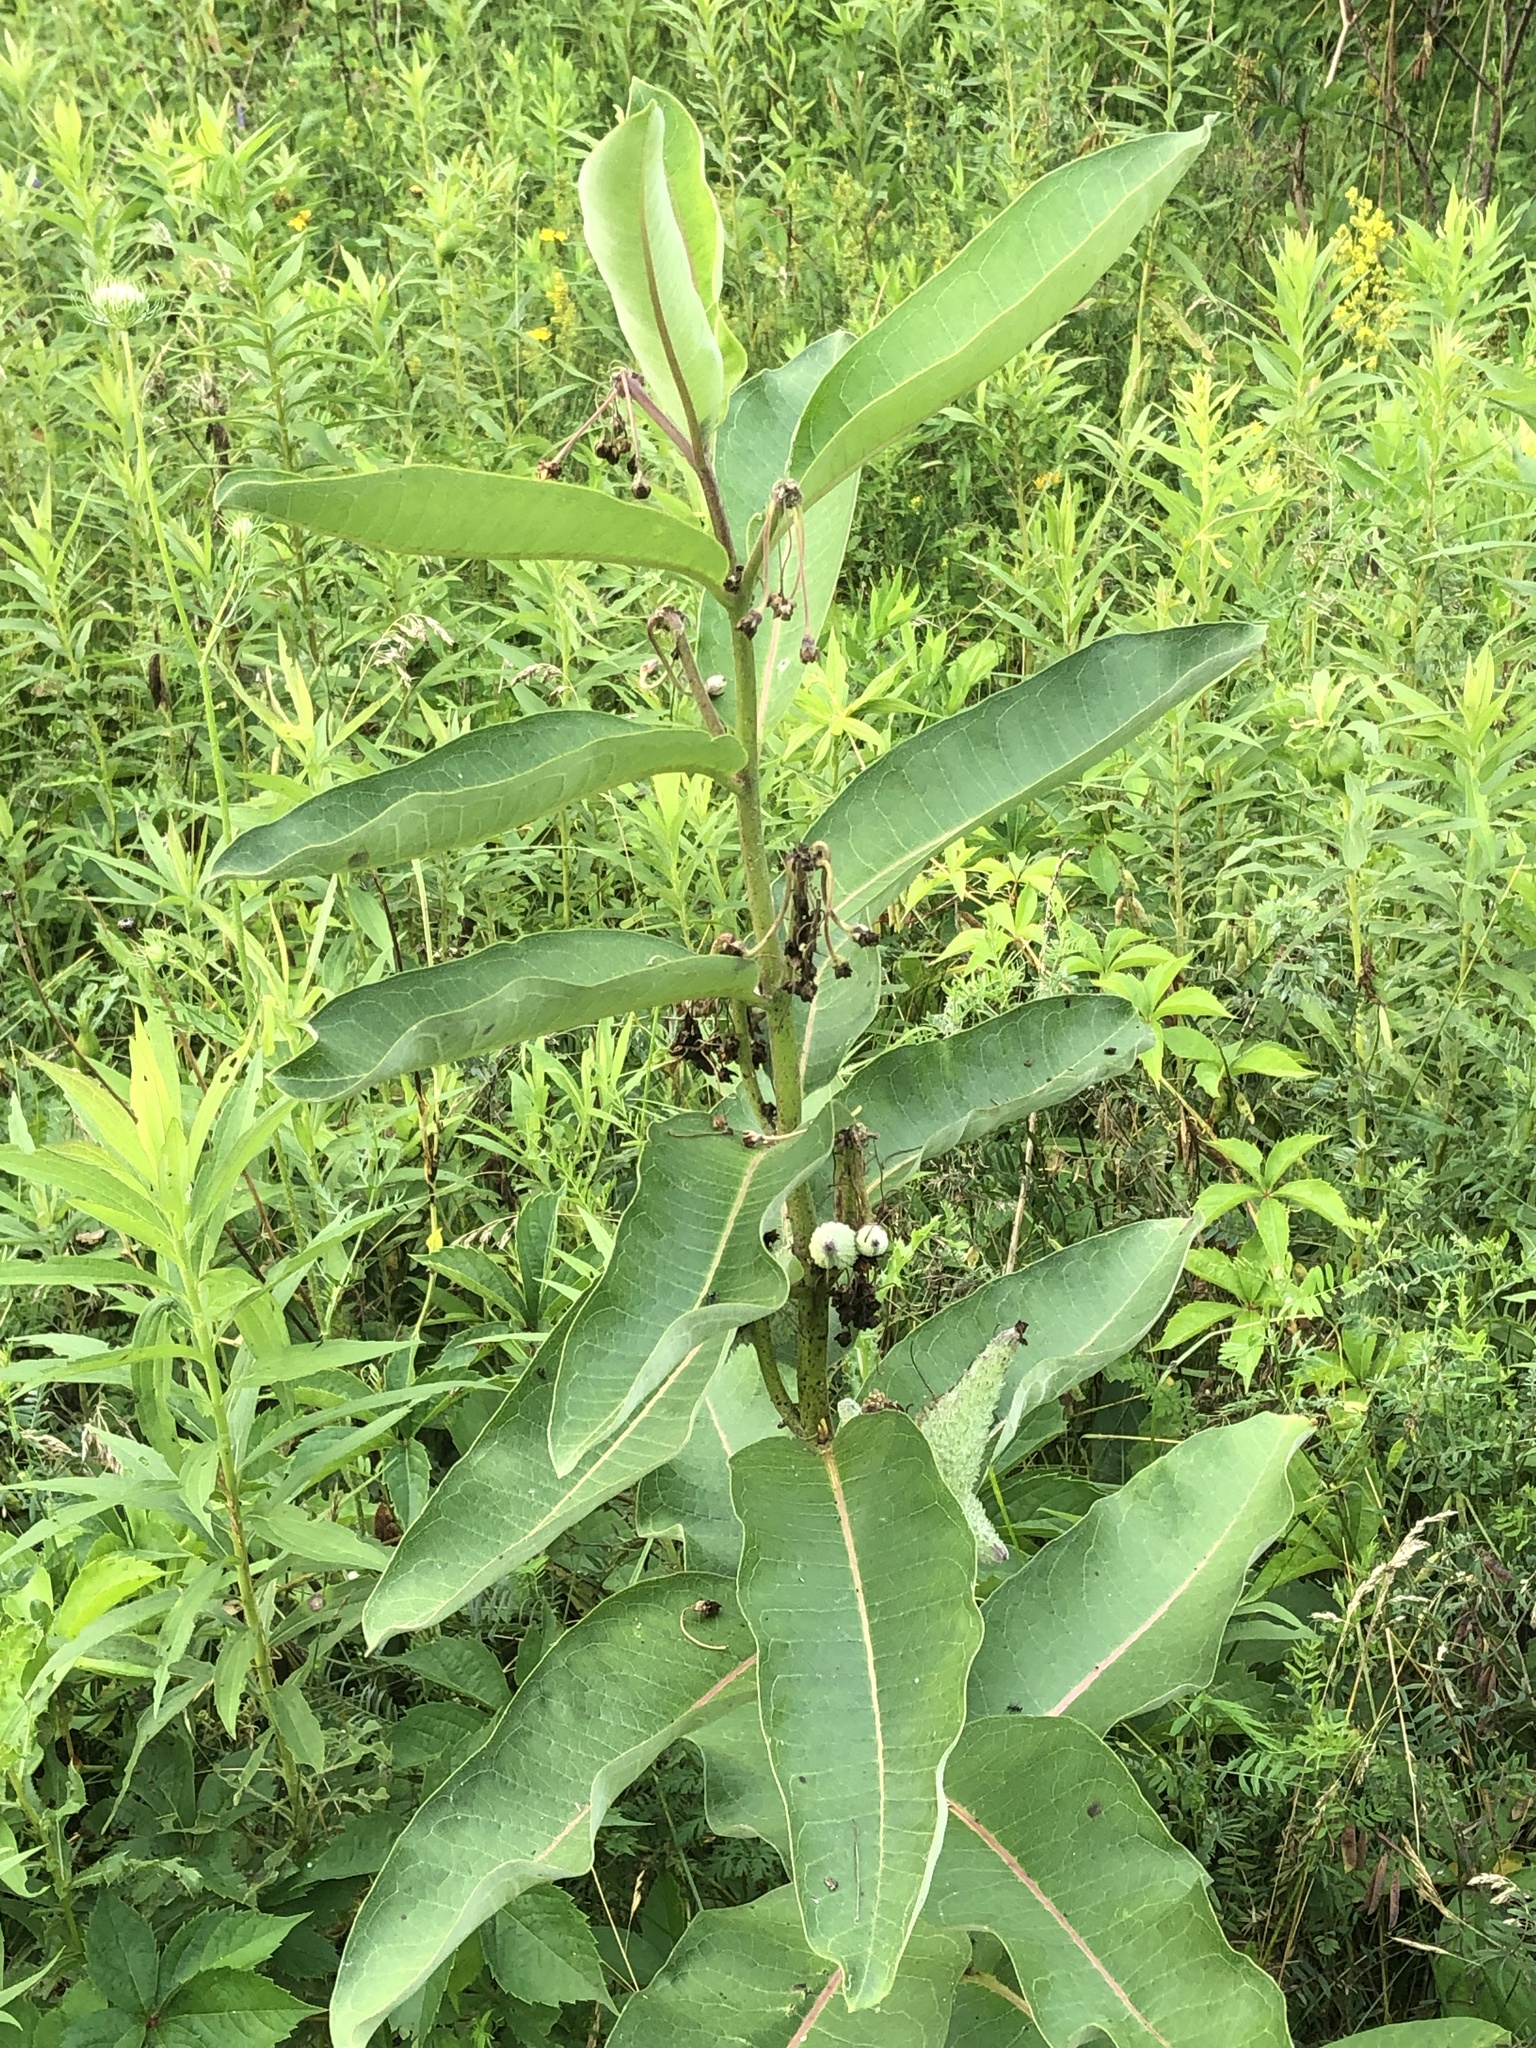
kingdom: Plantae
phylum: Tracheophyta
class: Magnoliopsida
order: Gentianales
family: Apocynaceae
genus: Asclepias
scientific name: Asclepias syriaca
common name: Common milkweed
